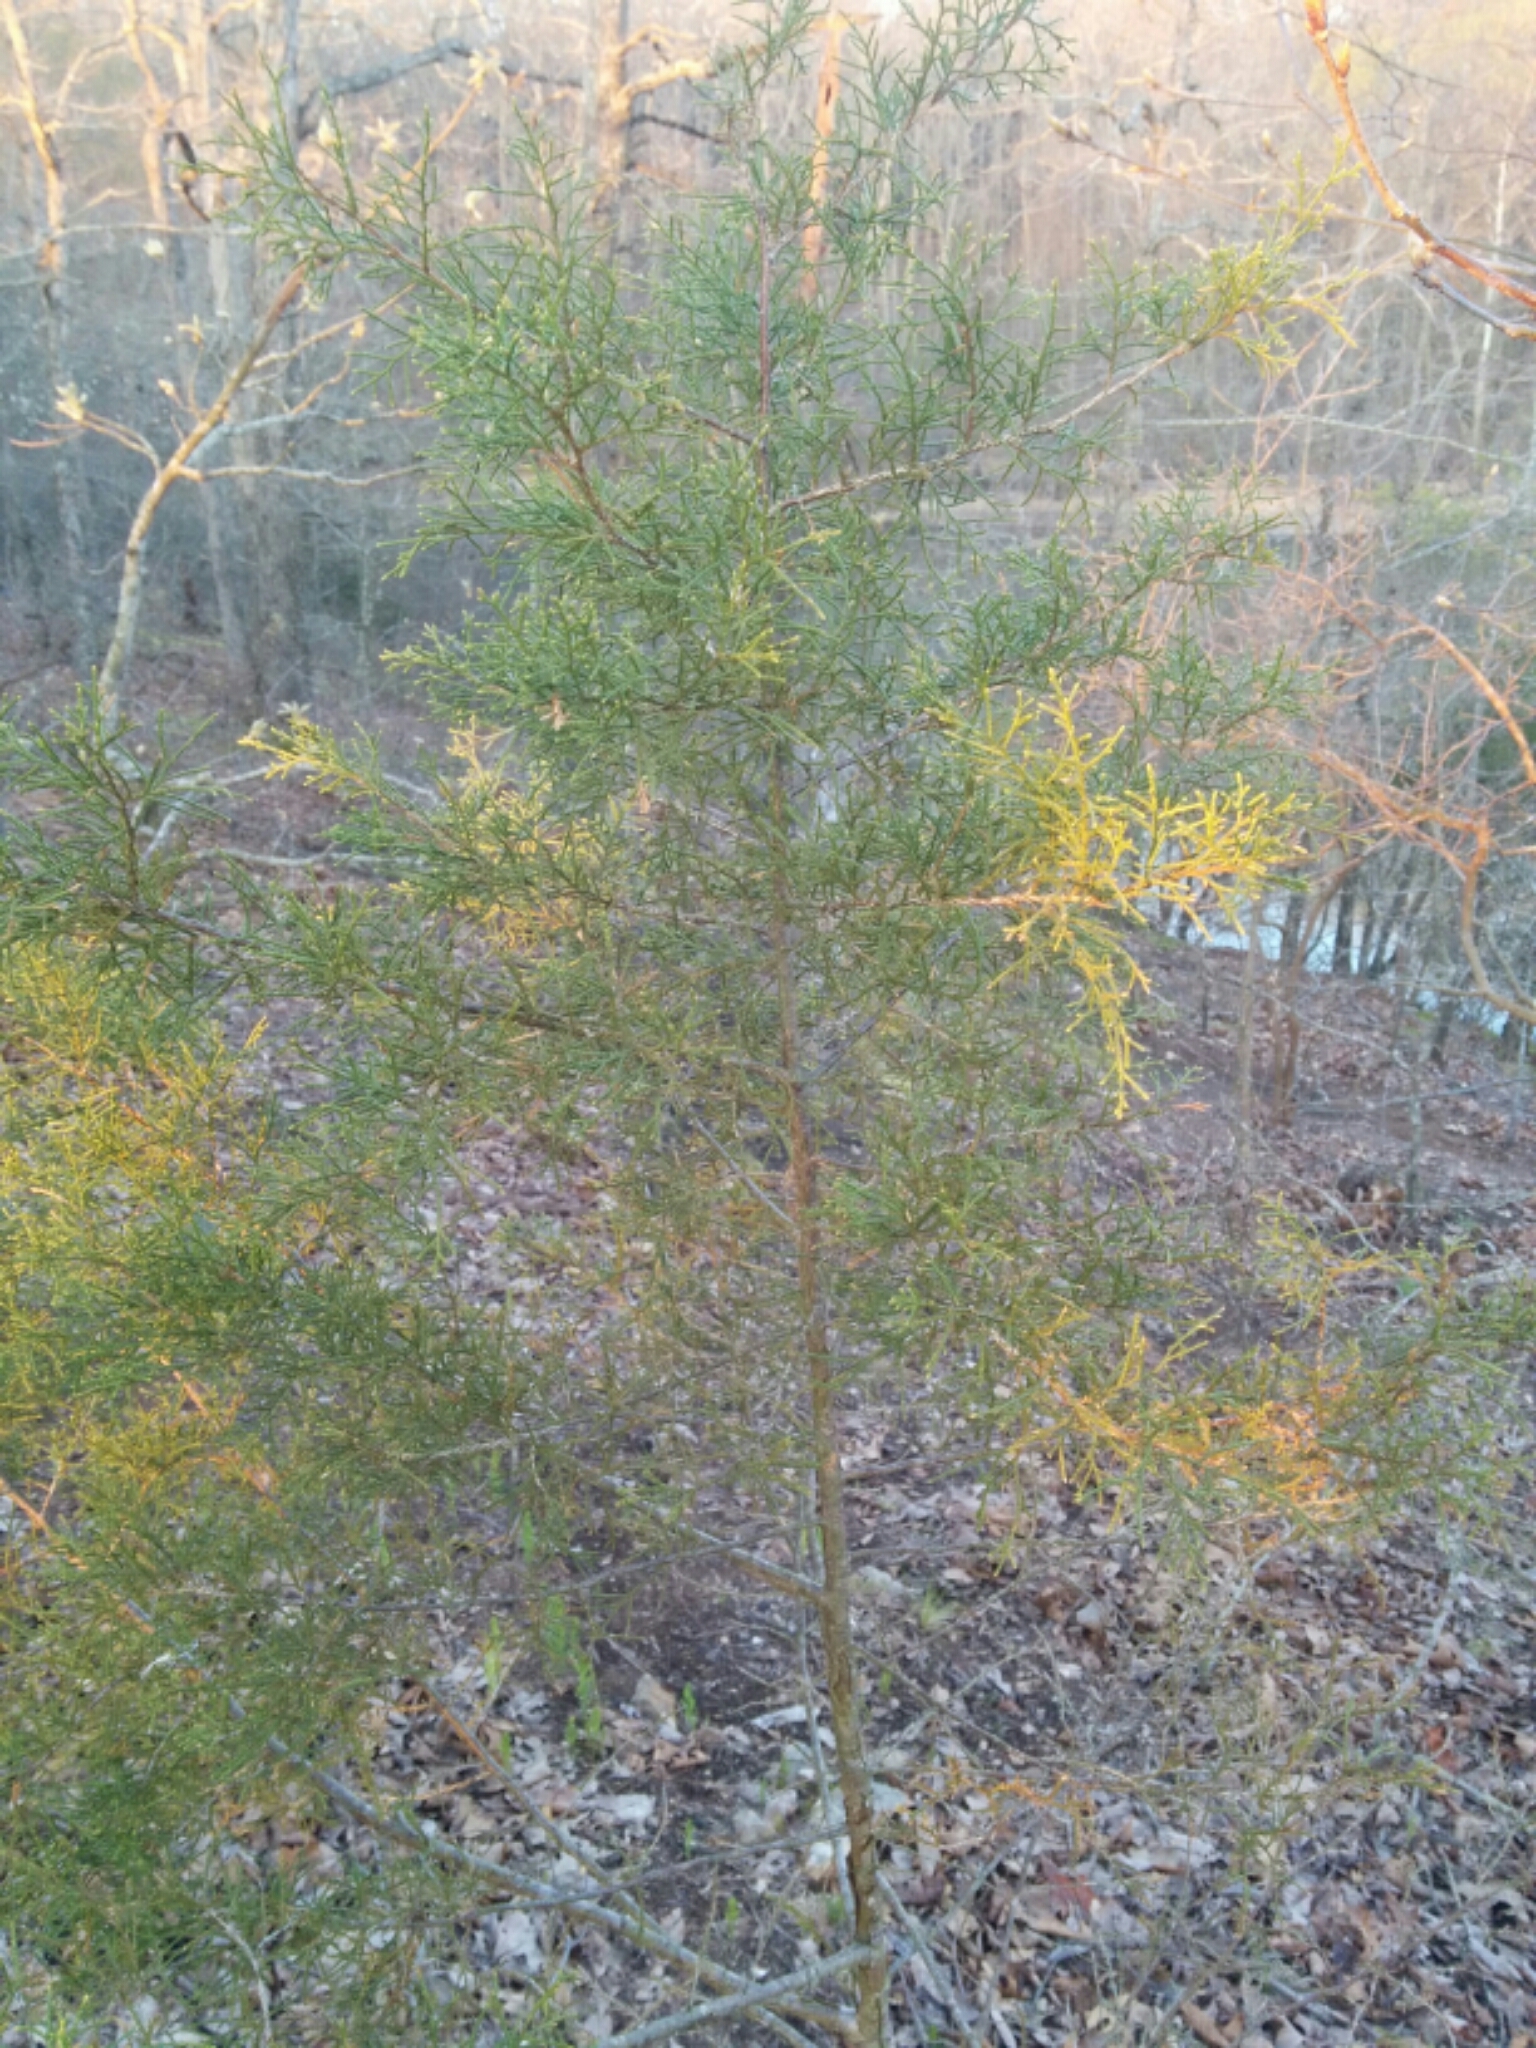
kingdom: Plantae
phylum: Tracheophyta
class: Pinopsida
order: Pinales
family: Cupressaceae
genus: Juniperus
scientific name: Juniperus virginiana
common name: Red juniper
